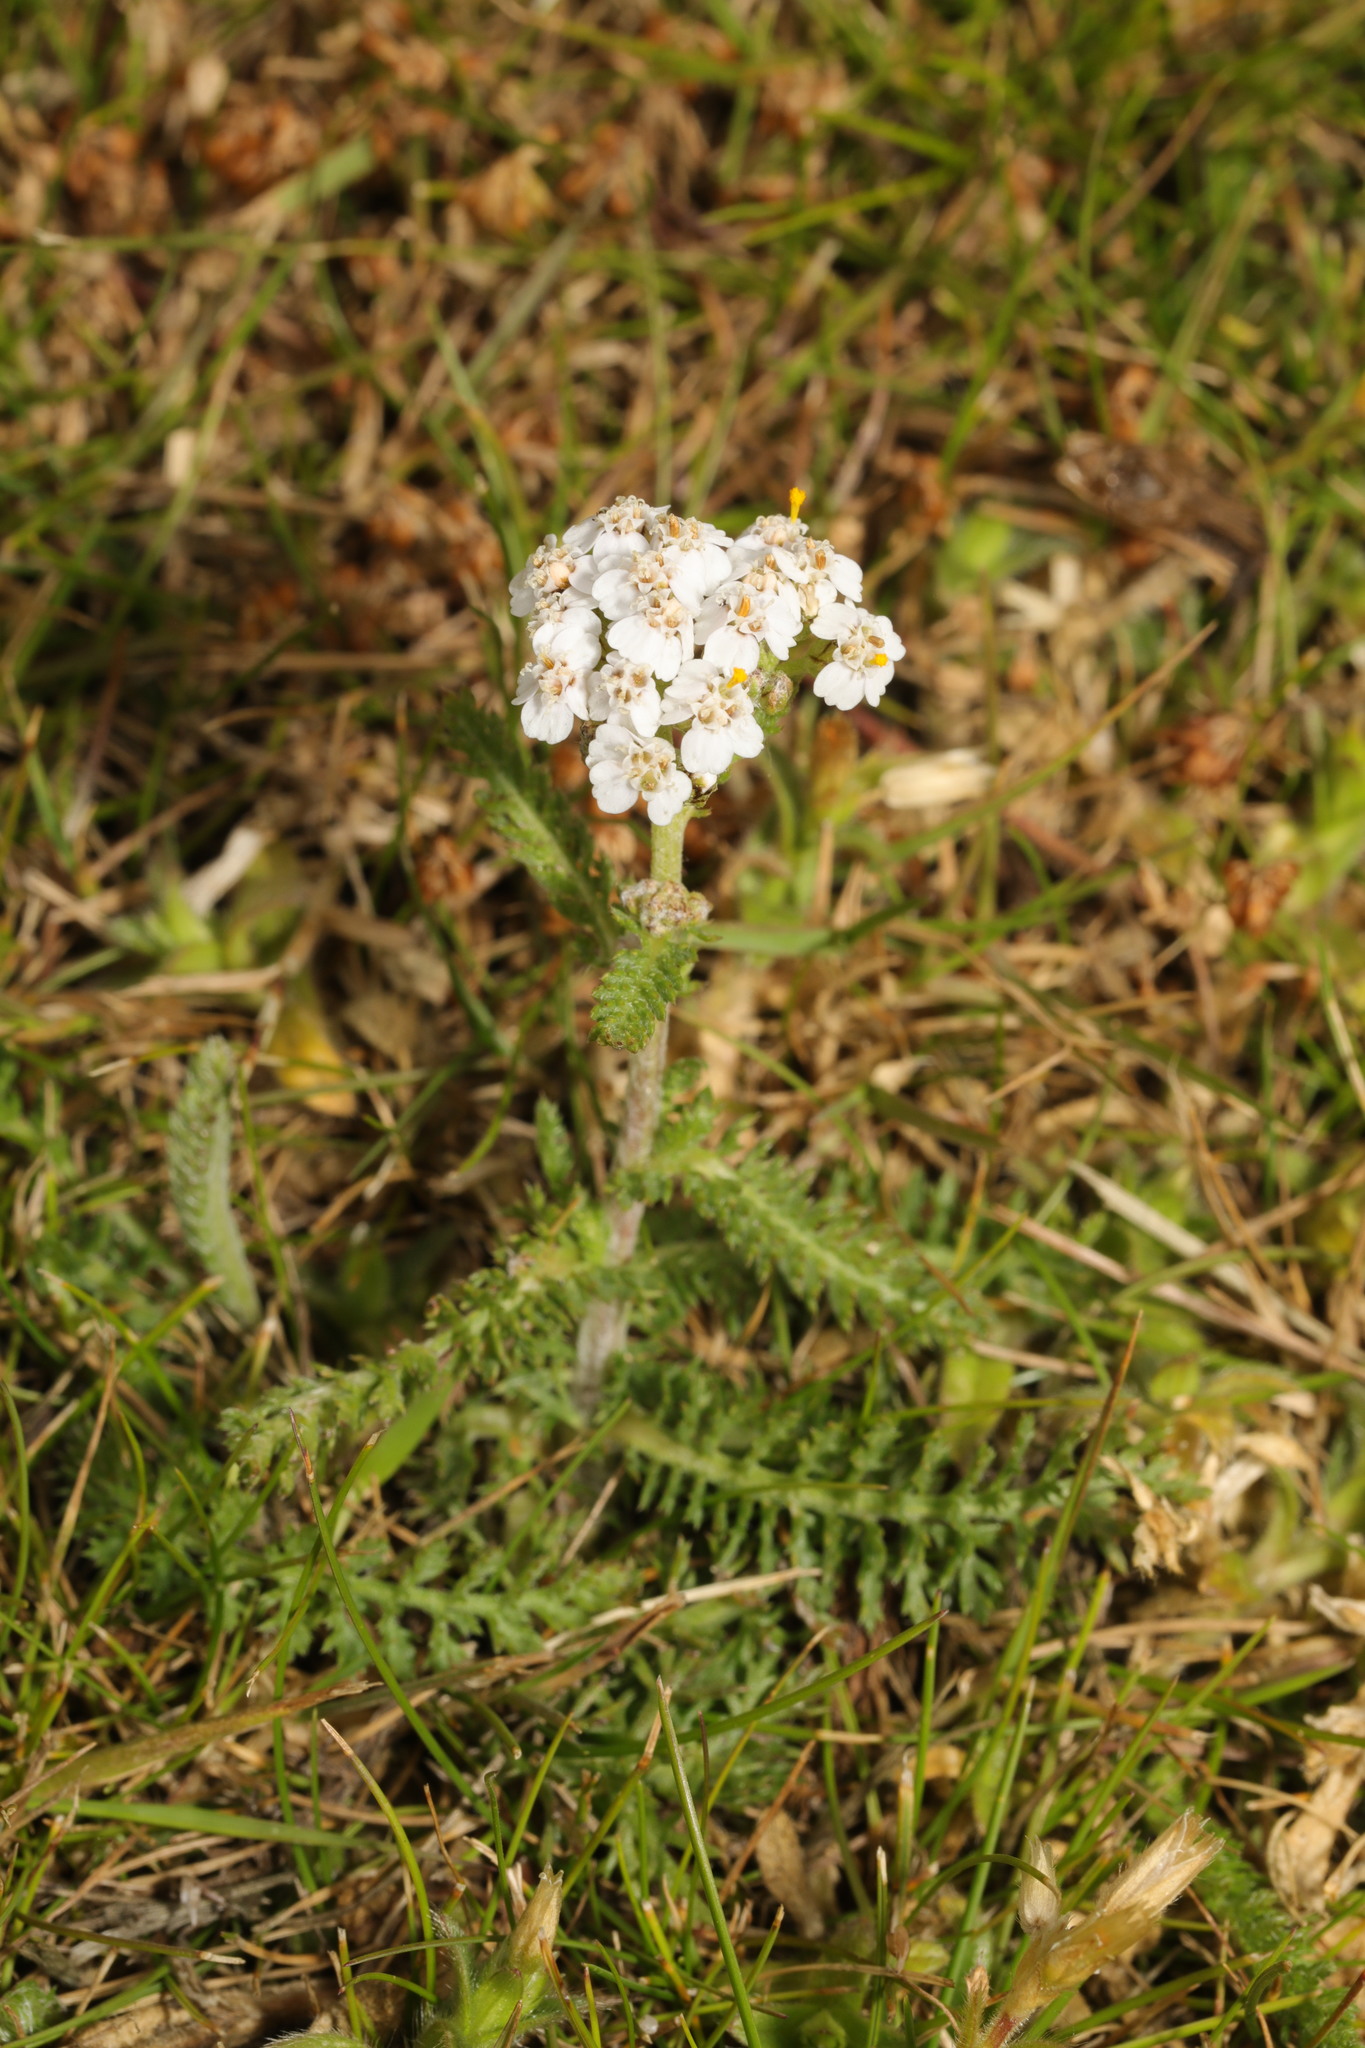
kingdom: Plantae
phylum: Tracheophyta
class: Magnoliopsida
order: Asterales
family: Asteraceae
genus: Achillea
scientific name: Achillea millefolium
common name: Yarrow
